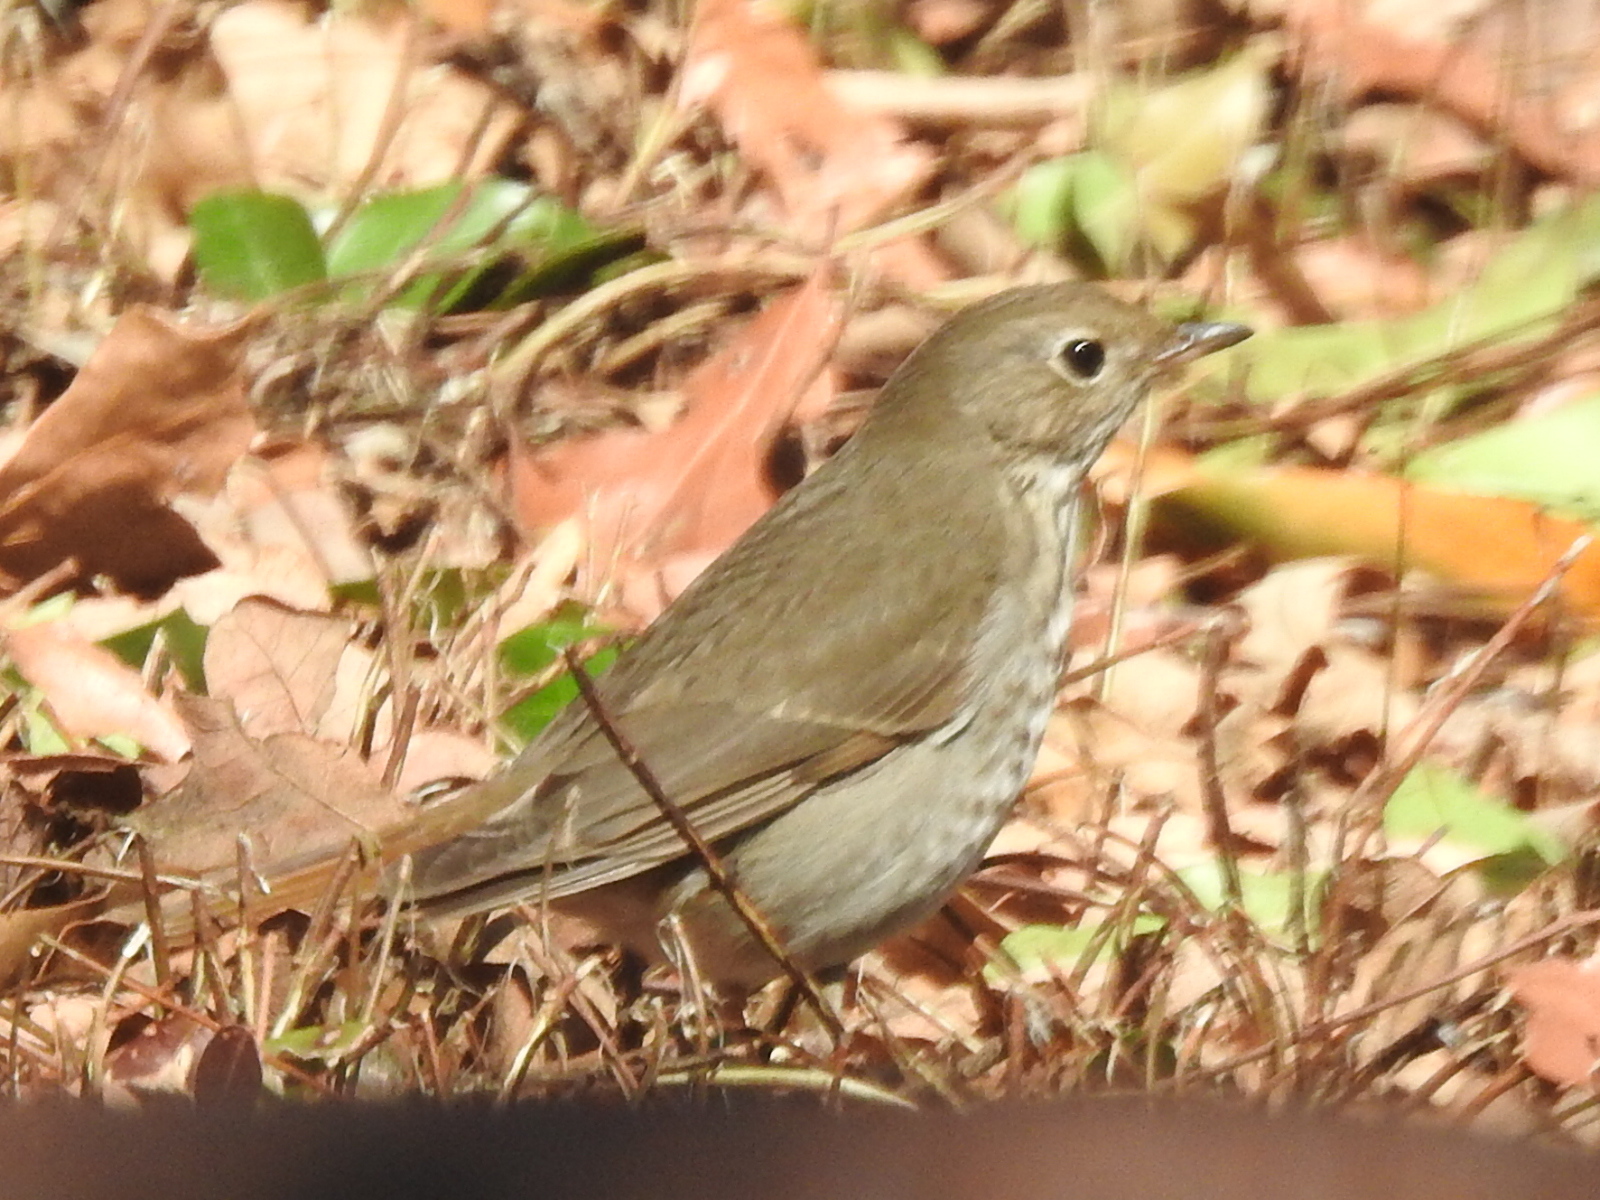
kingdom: Animalia
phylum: Chordata
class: Aves
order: Passeriformes
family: Turdidae
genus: Catharus
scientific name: Catharus guttatus
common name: Hermit thrush
